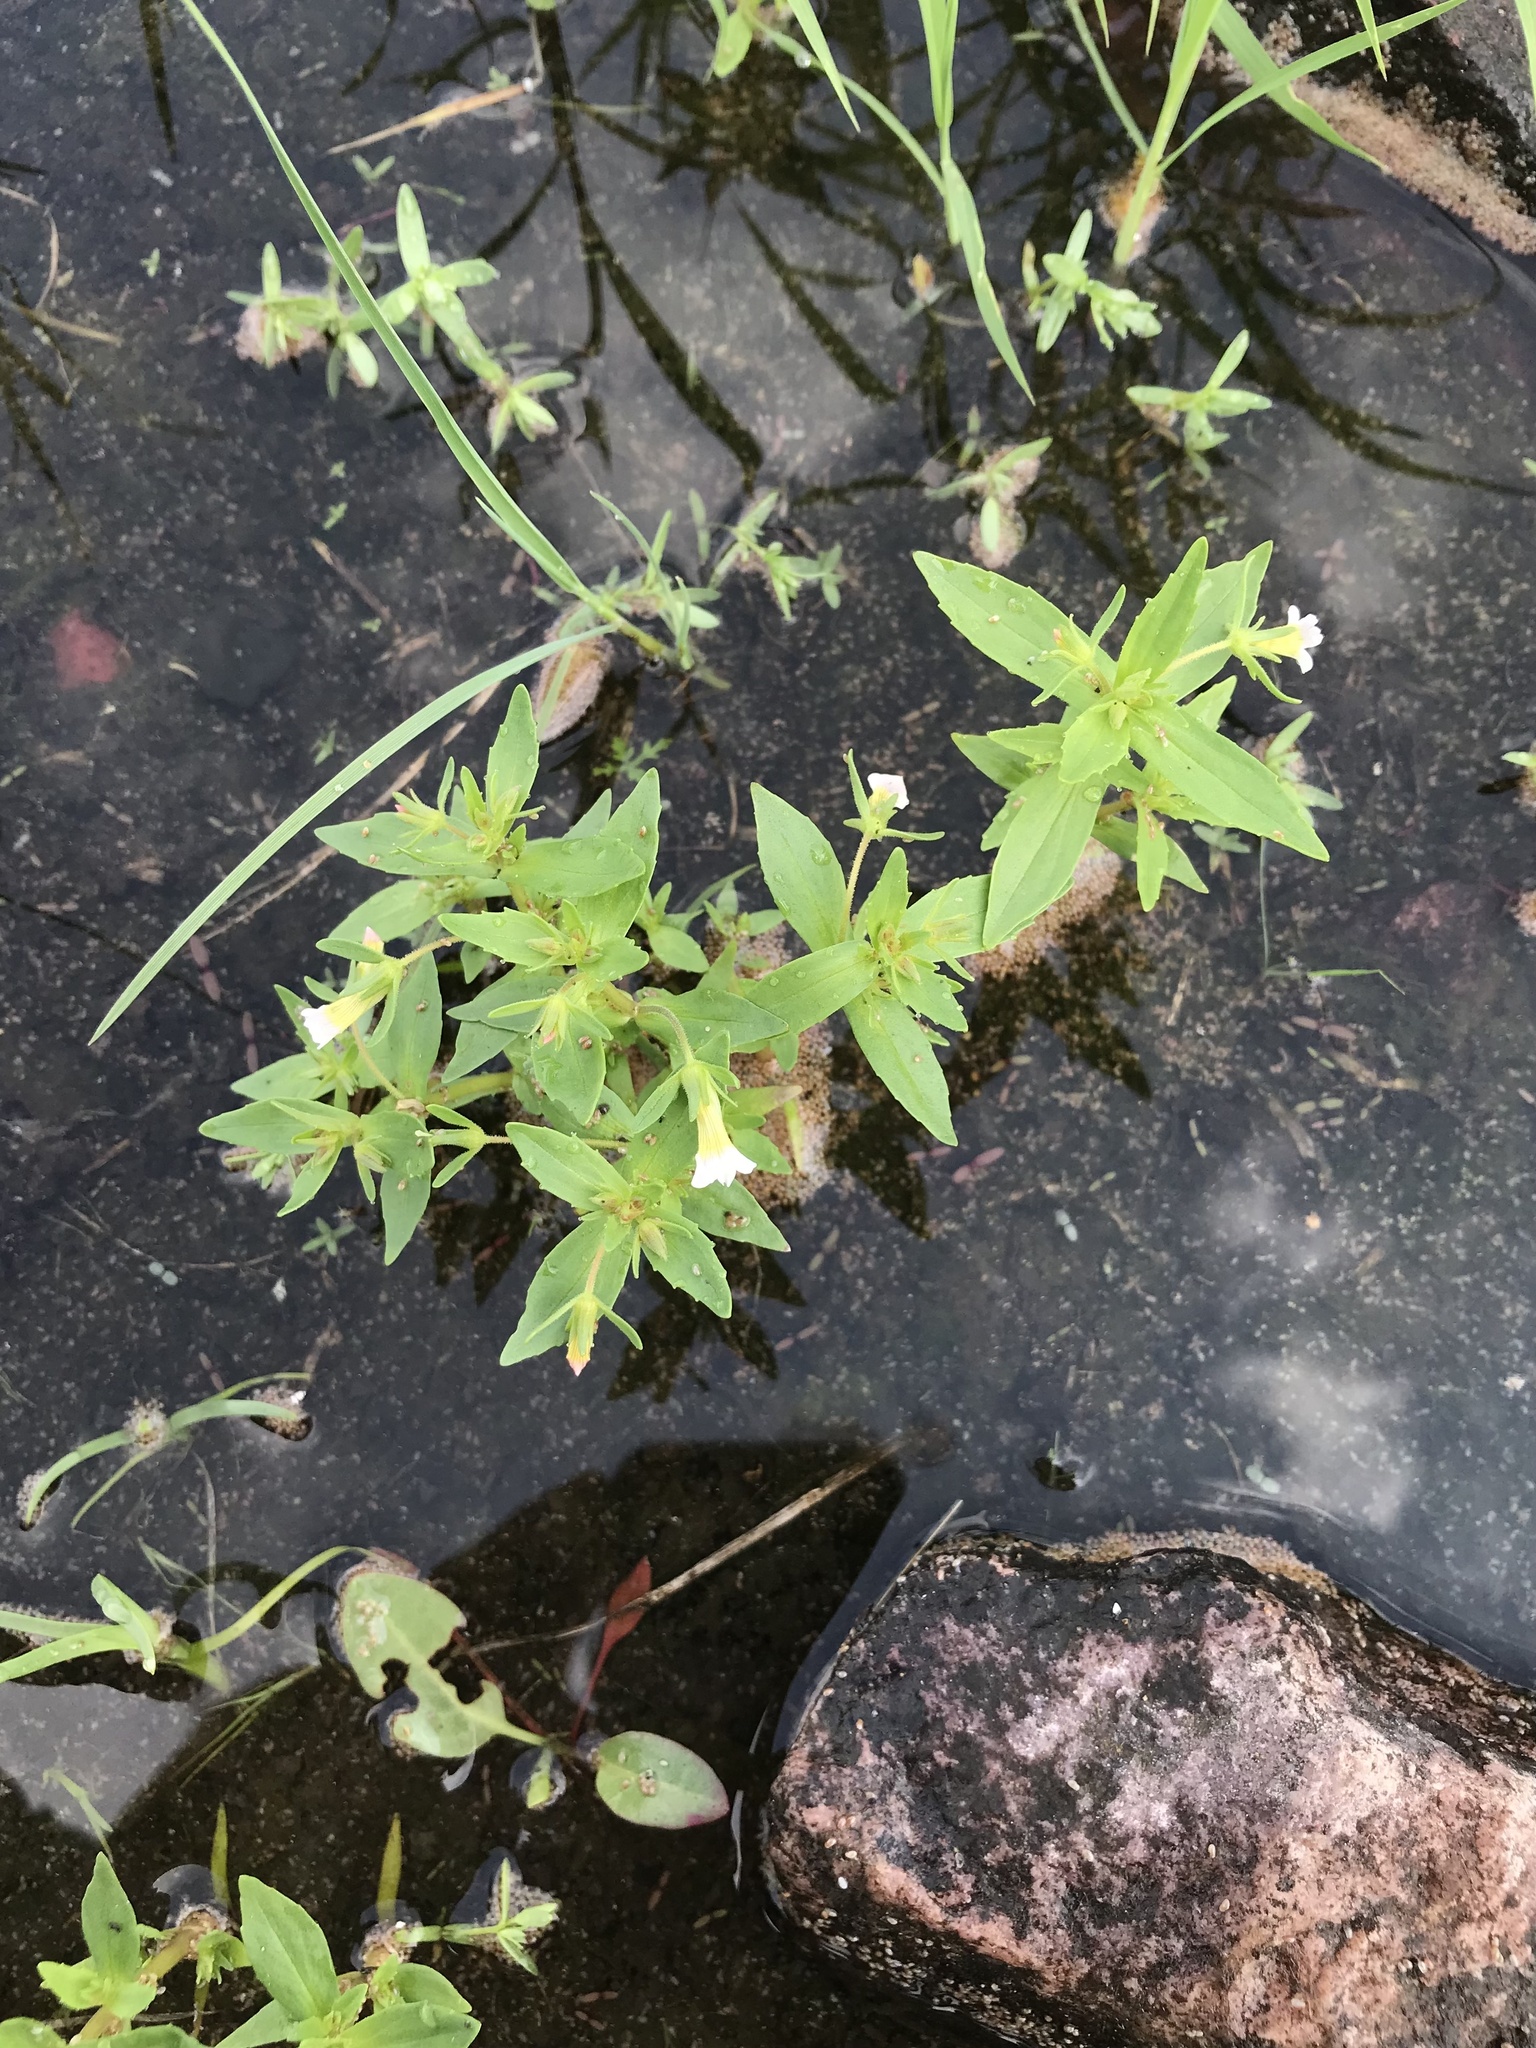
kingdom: Plantae
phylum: Tracheophyta
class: Magnoliopsida
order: Lamiales
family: Plantaginaceae
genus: Gratiola
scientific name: Gratiola neglecta
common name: American hedge-hyssop
